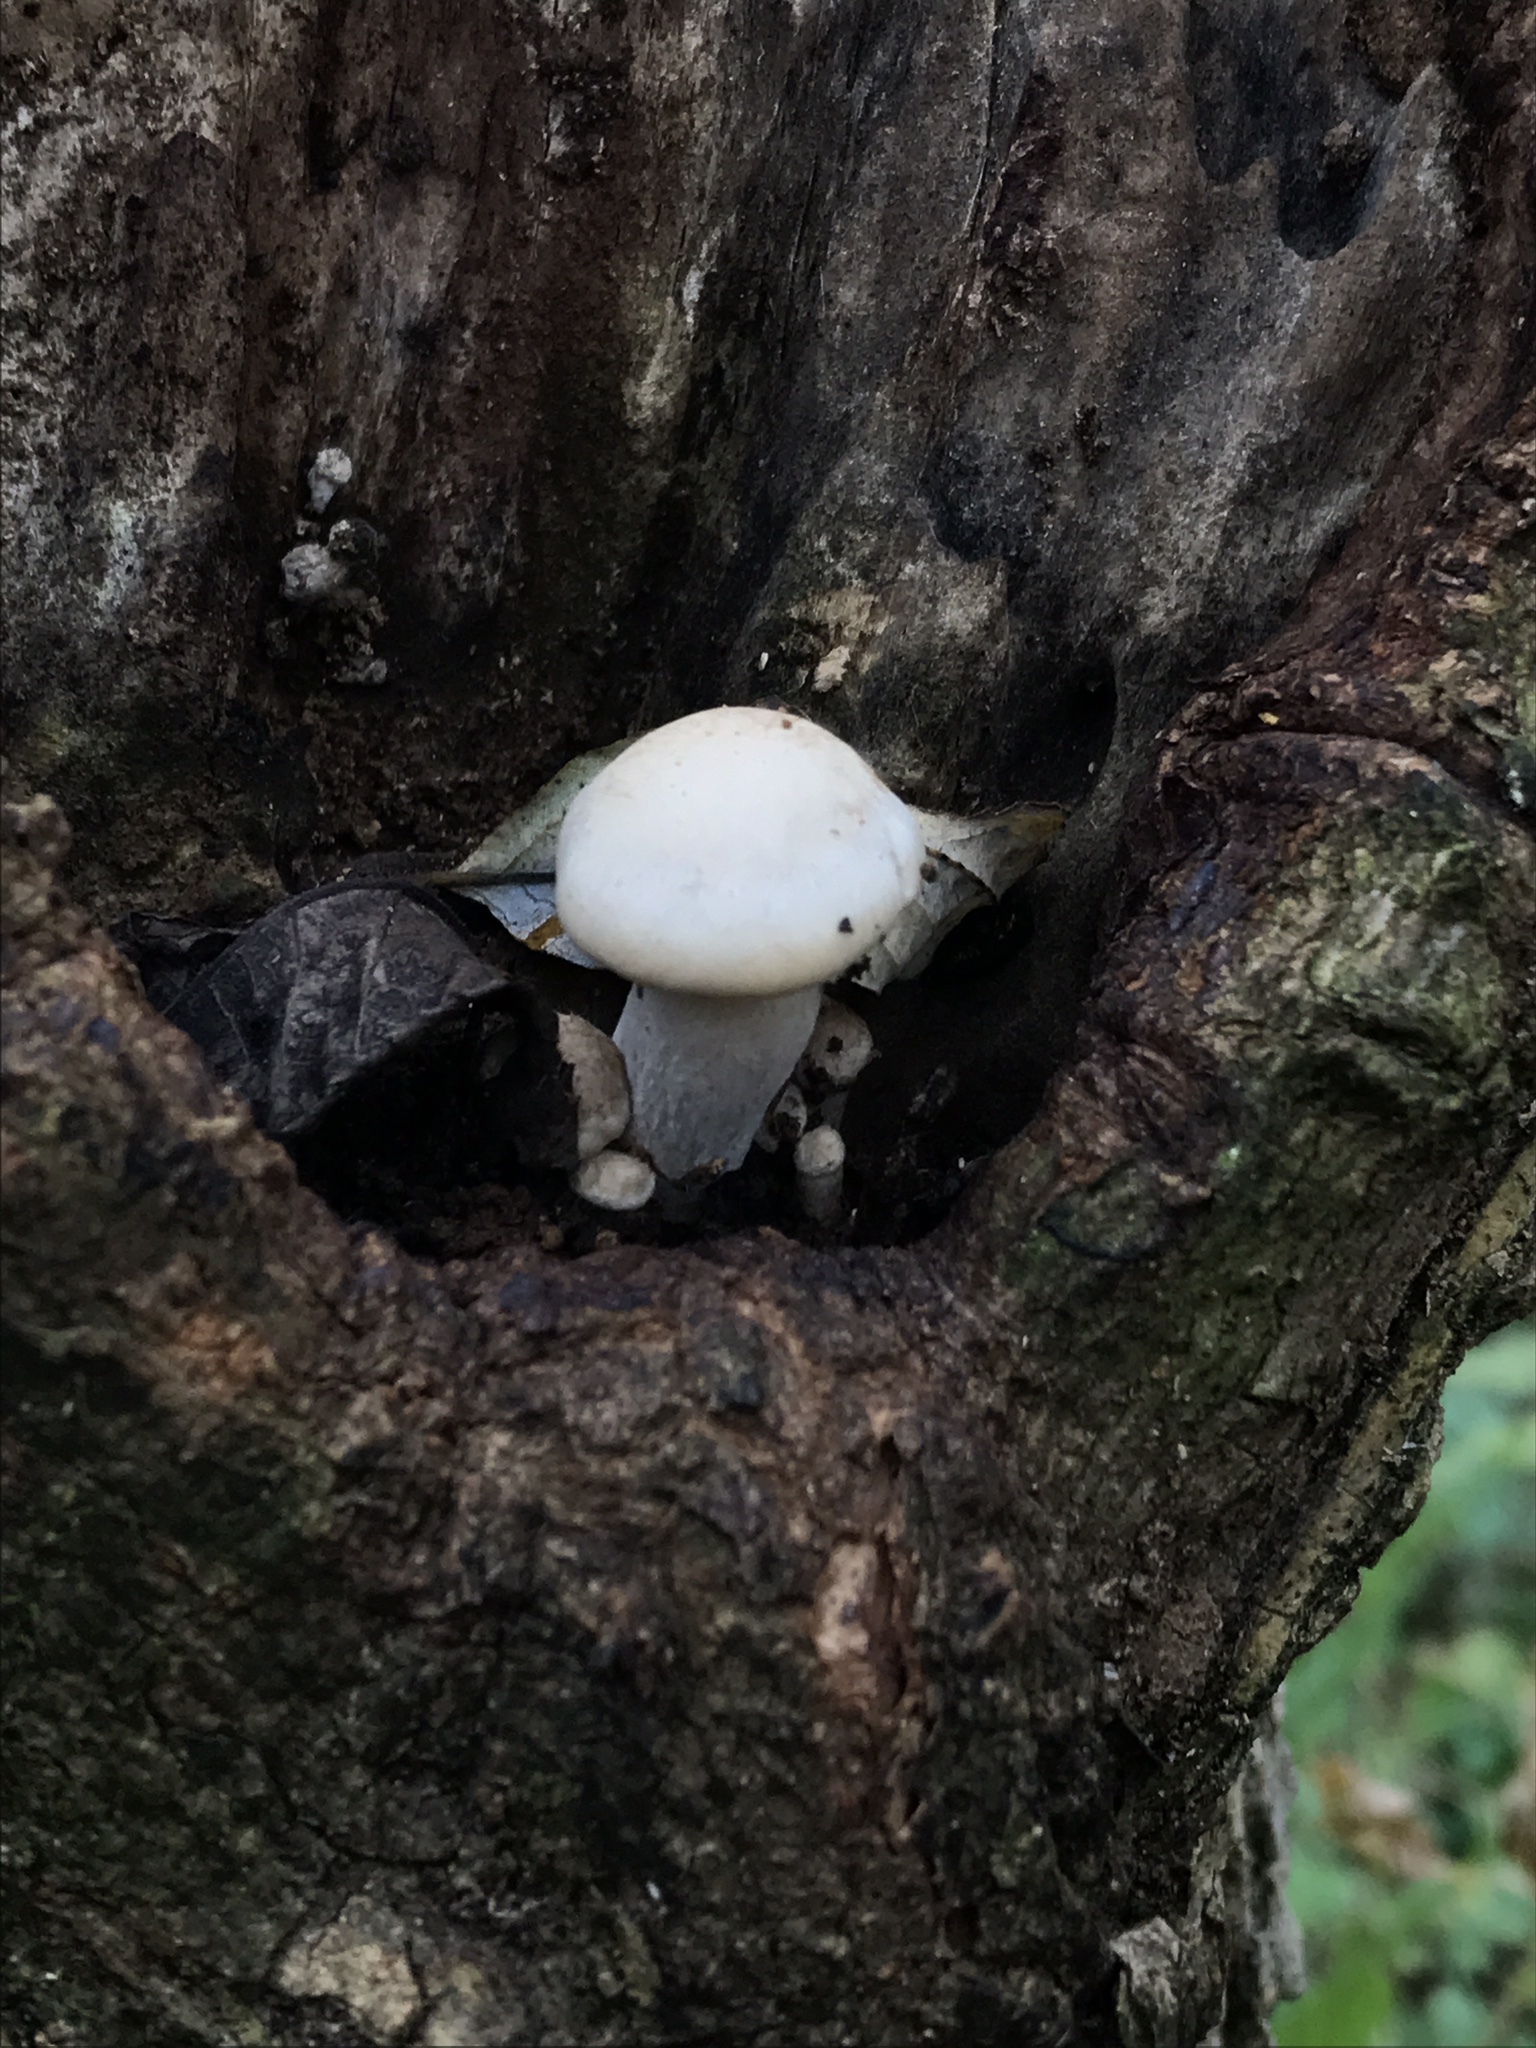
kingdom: Fungi
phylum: Basidiomycota
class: Agaricomycetes
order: Agaricales
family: Lyophyllaceae
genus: Hypsizygus
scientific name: Hypsizygus ulmarius
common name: Elm leech
